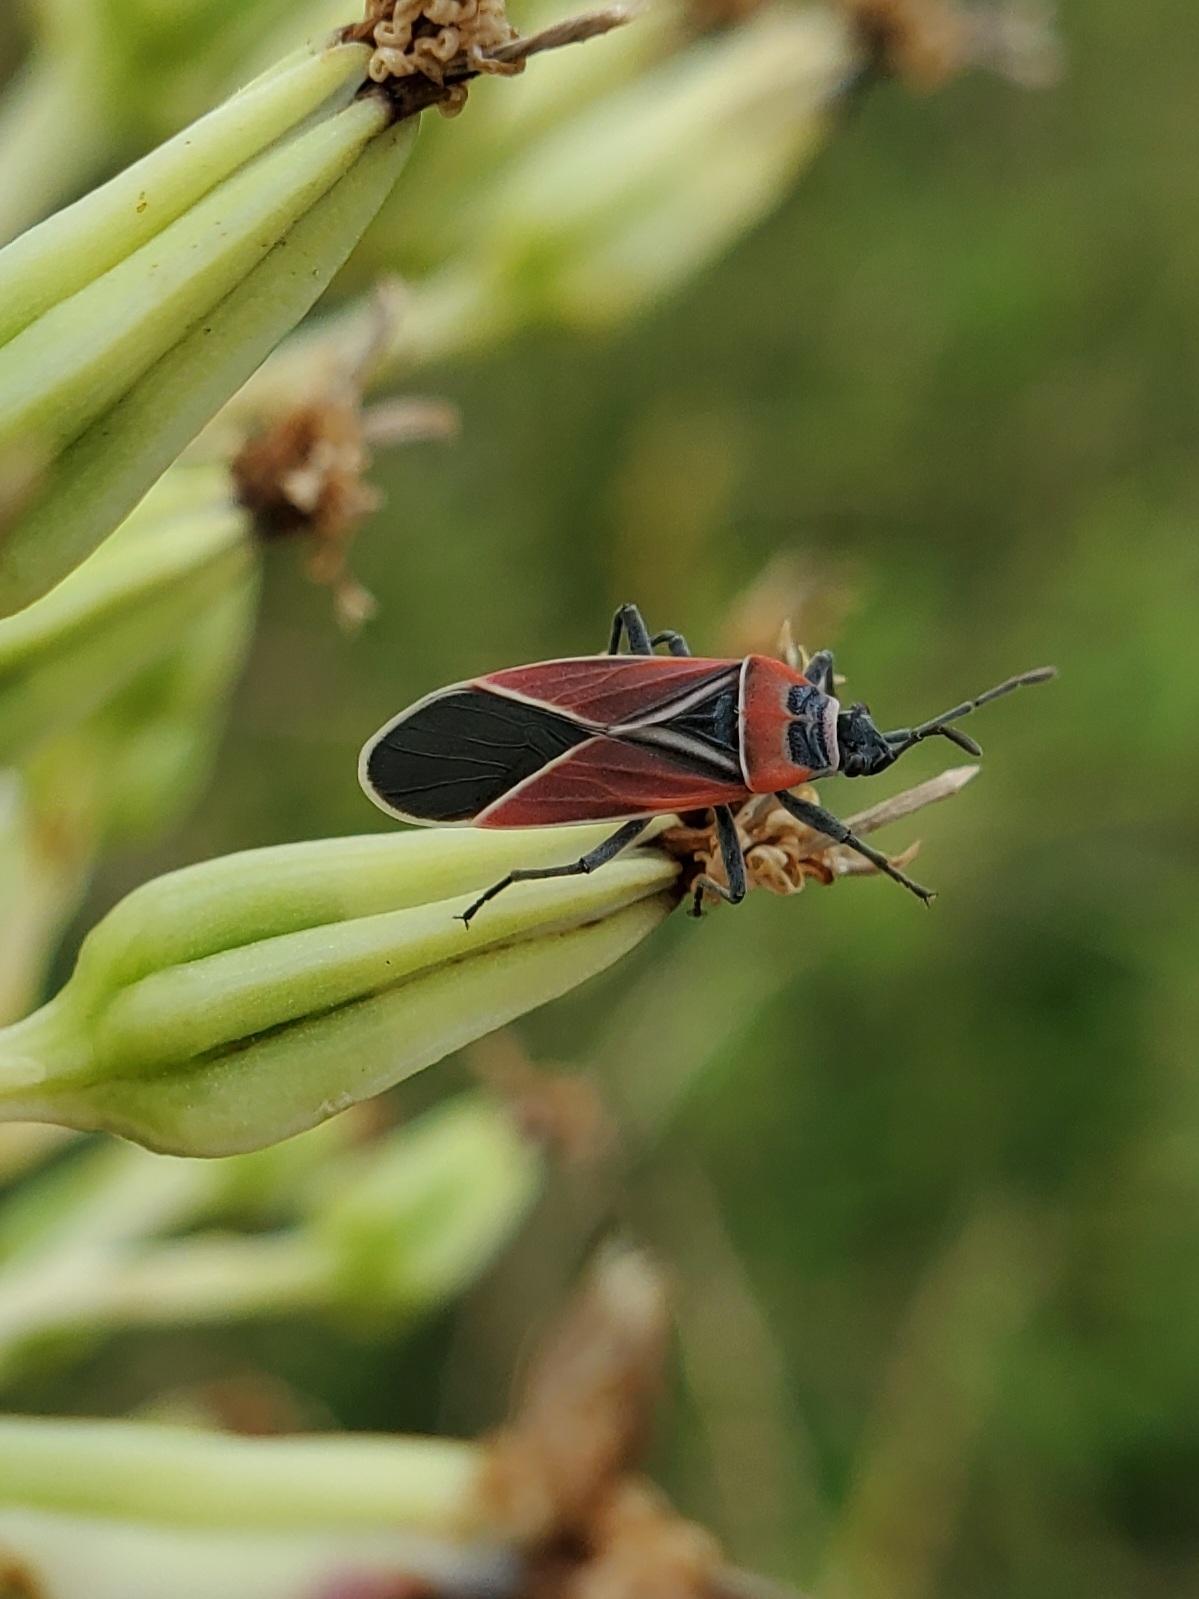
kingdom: Animalia
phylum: Arthropoda
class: Insecta
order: Hemiptera
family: Lygaeidae
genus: Neacoryphus
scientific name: Neacoryphus bicrucis
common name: Lygaeid bug
